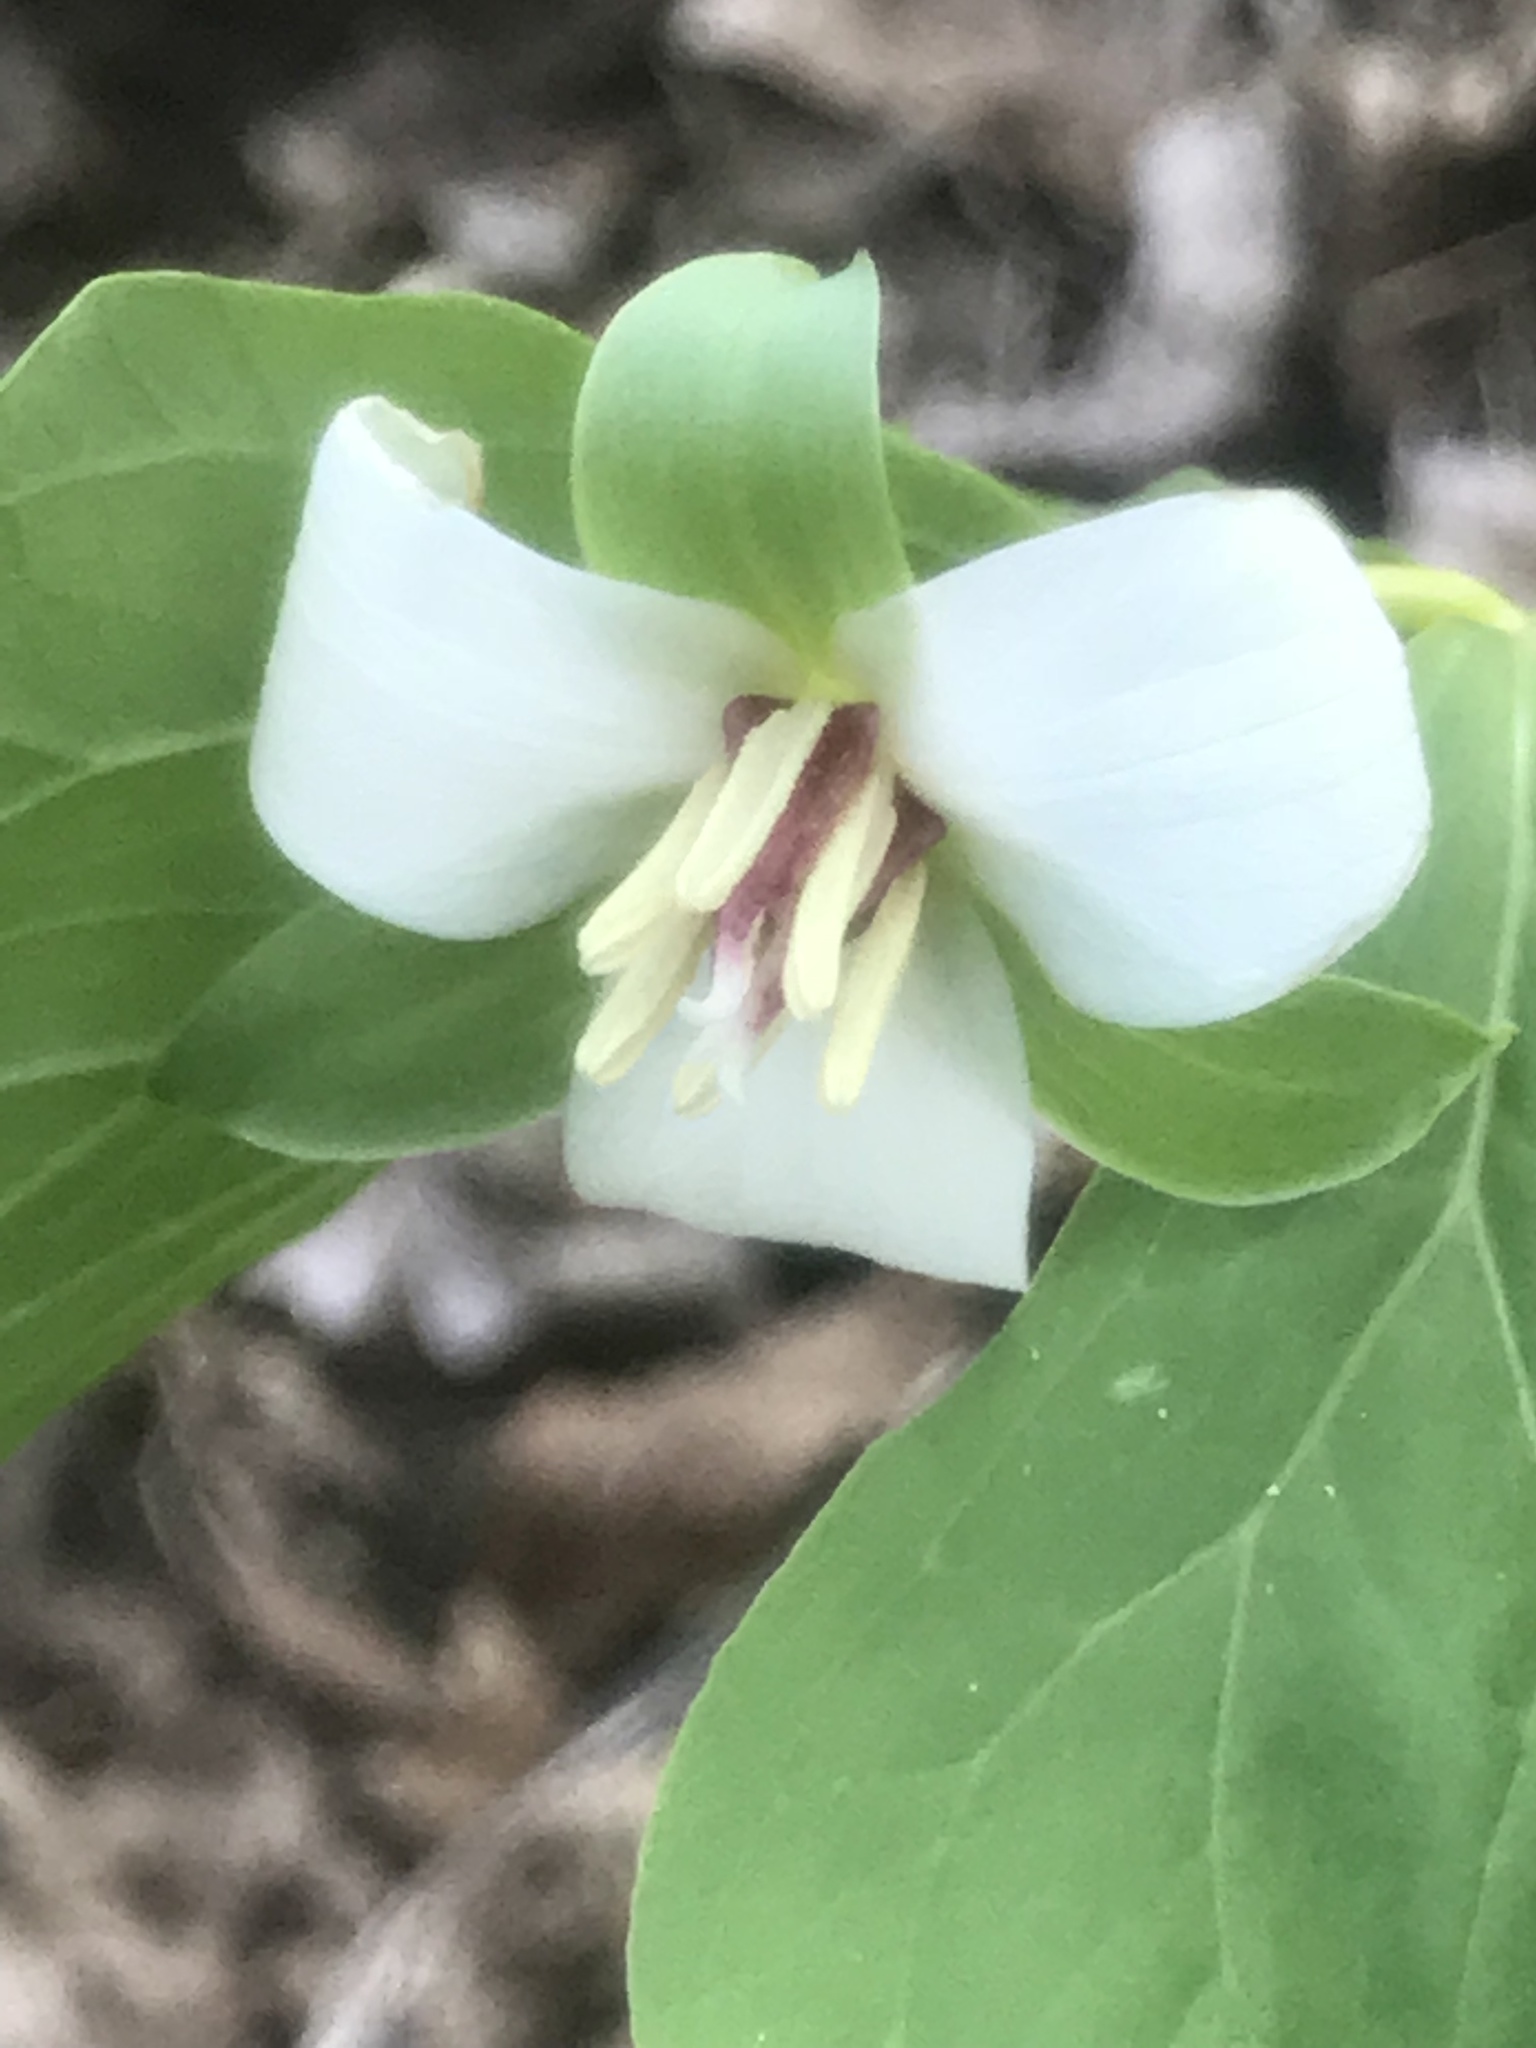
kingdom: Plantae
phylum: Tracheophyta
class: Liliopsida
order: Liliales
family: Melanthiaceae
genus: Trillium
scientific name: Trillium flexipes
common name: Drooping trillium
